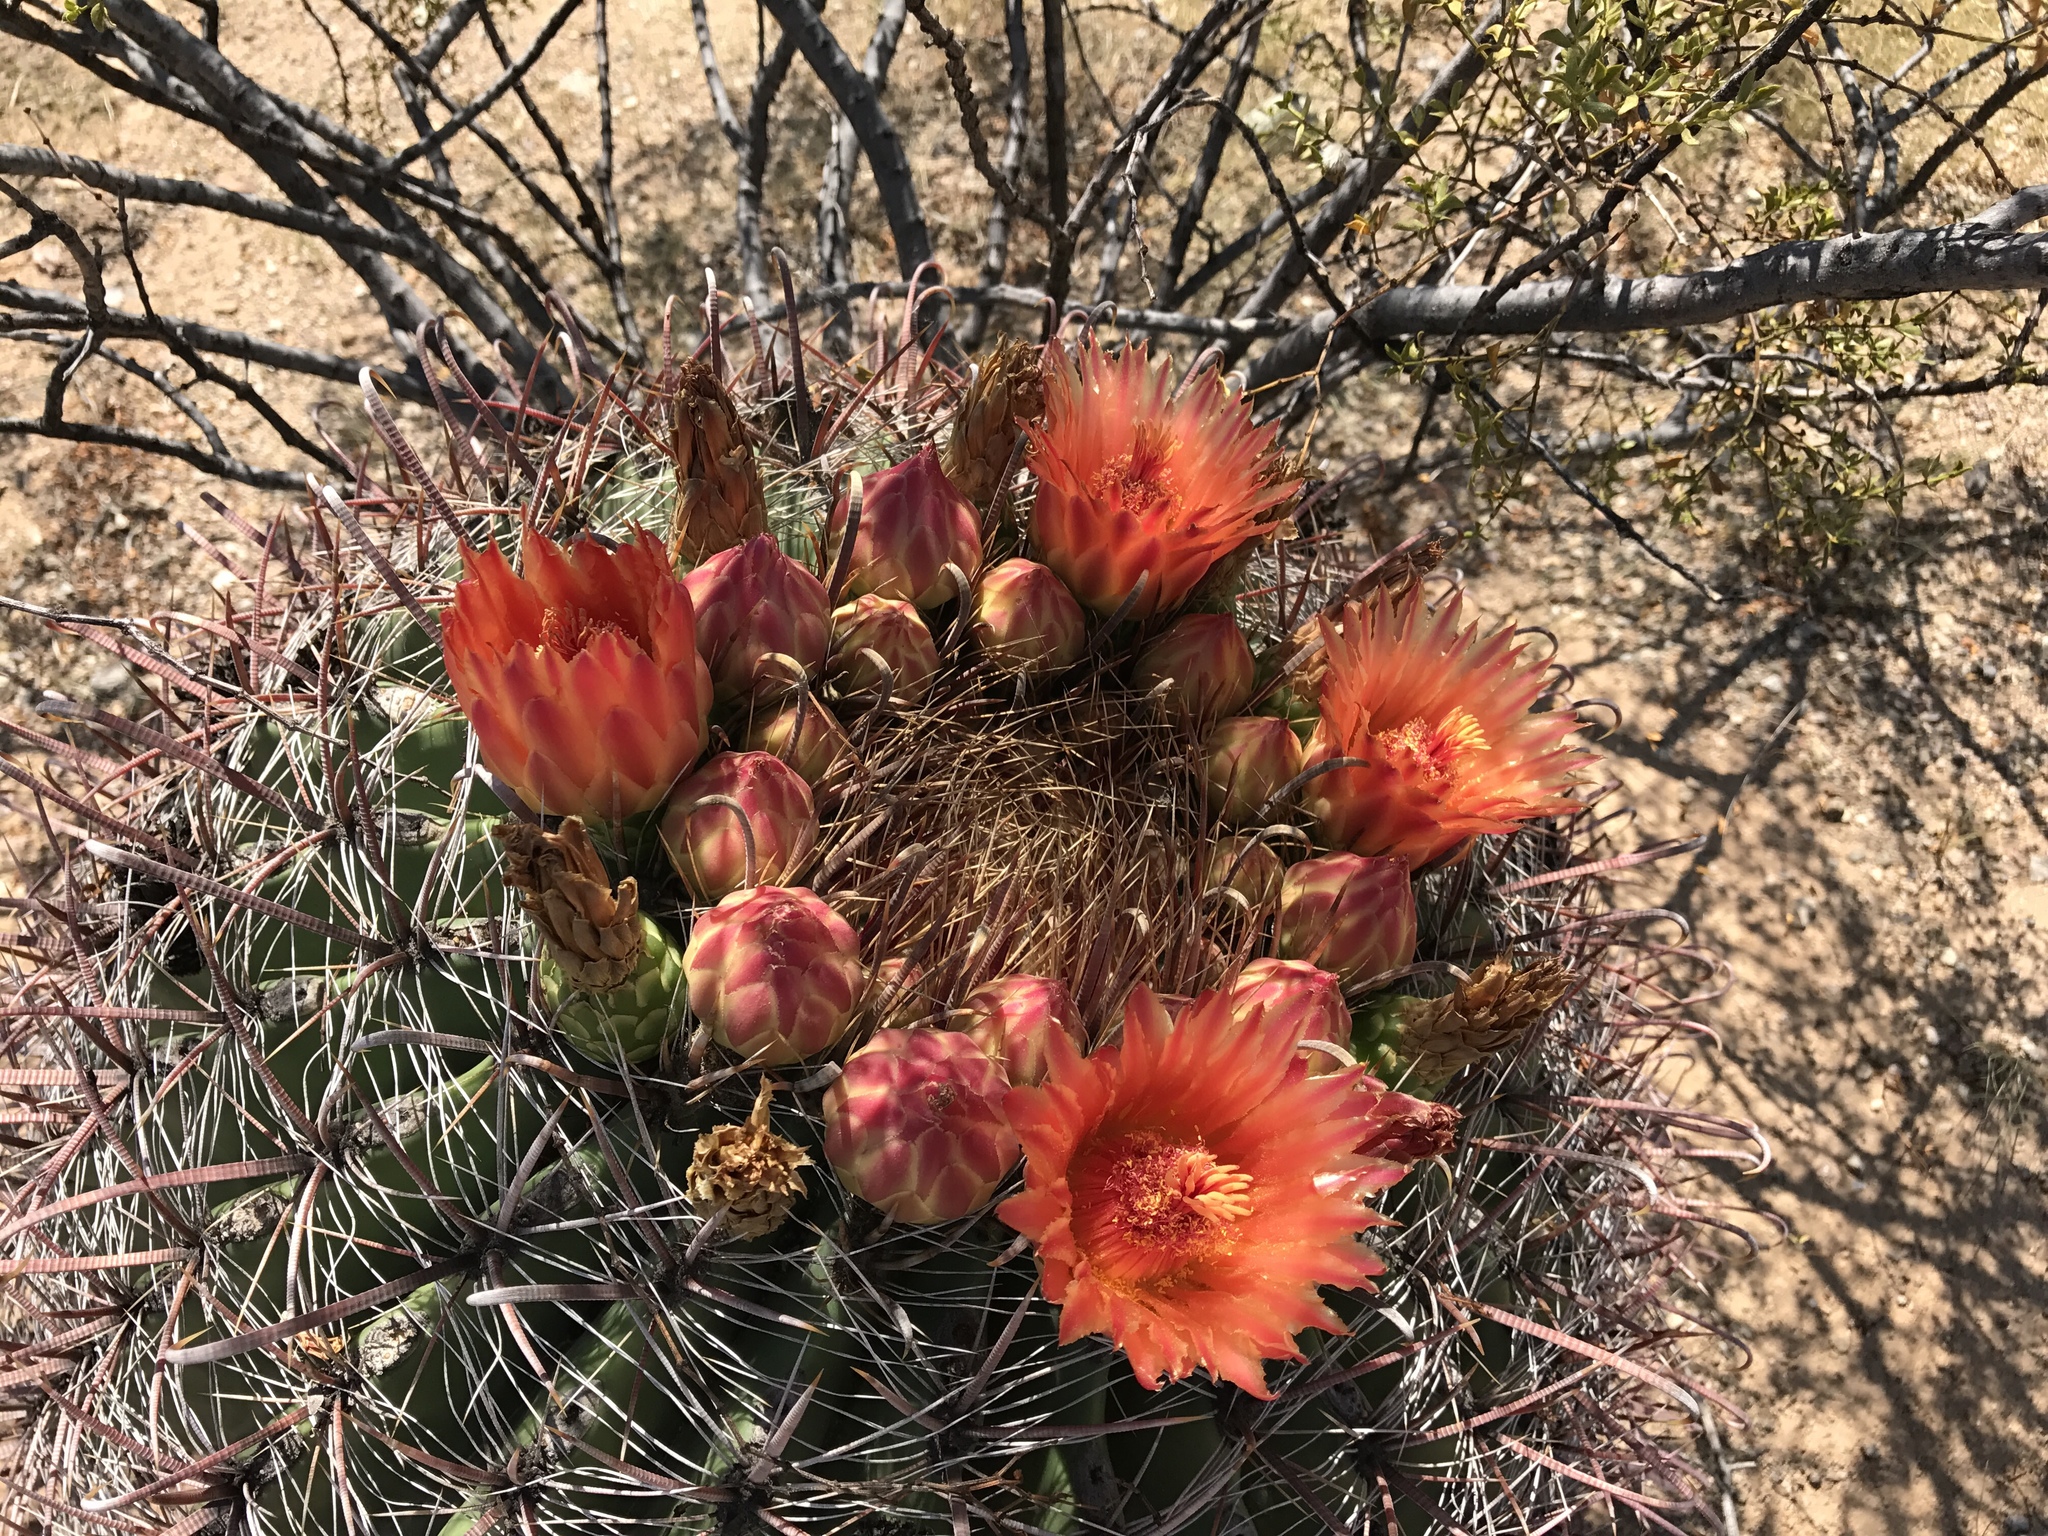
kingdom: Plantae
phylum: Tracheophyta
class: Magnoliopsida
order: Caryophyllales
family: Cactaceae
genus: Ferocactus
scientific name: Ferocactus wislizeni
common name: Candy barrel cactus
